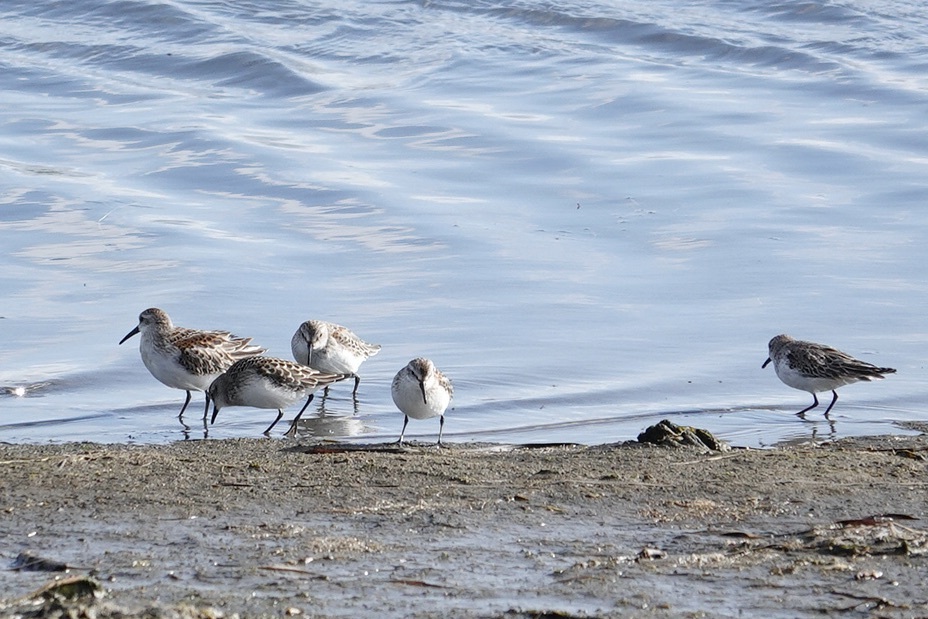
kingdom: Animalia
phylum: Chordata
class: Aves
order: Charadriiformes
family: Scolopacidae
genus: Calidris
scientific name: Calidris mauri
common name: Western sandpiper
